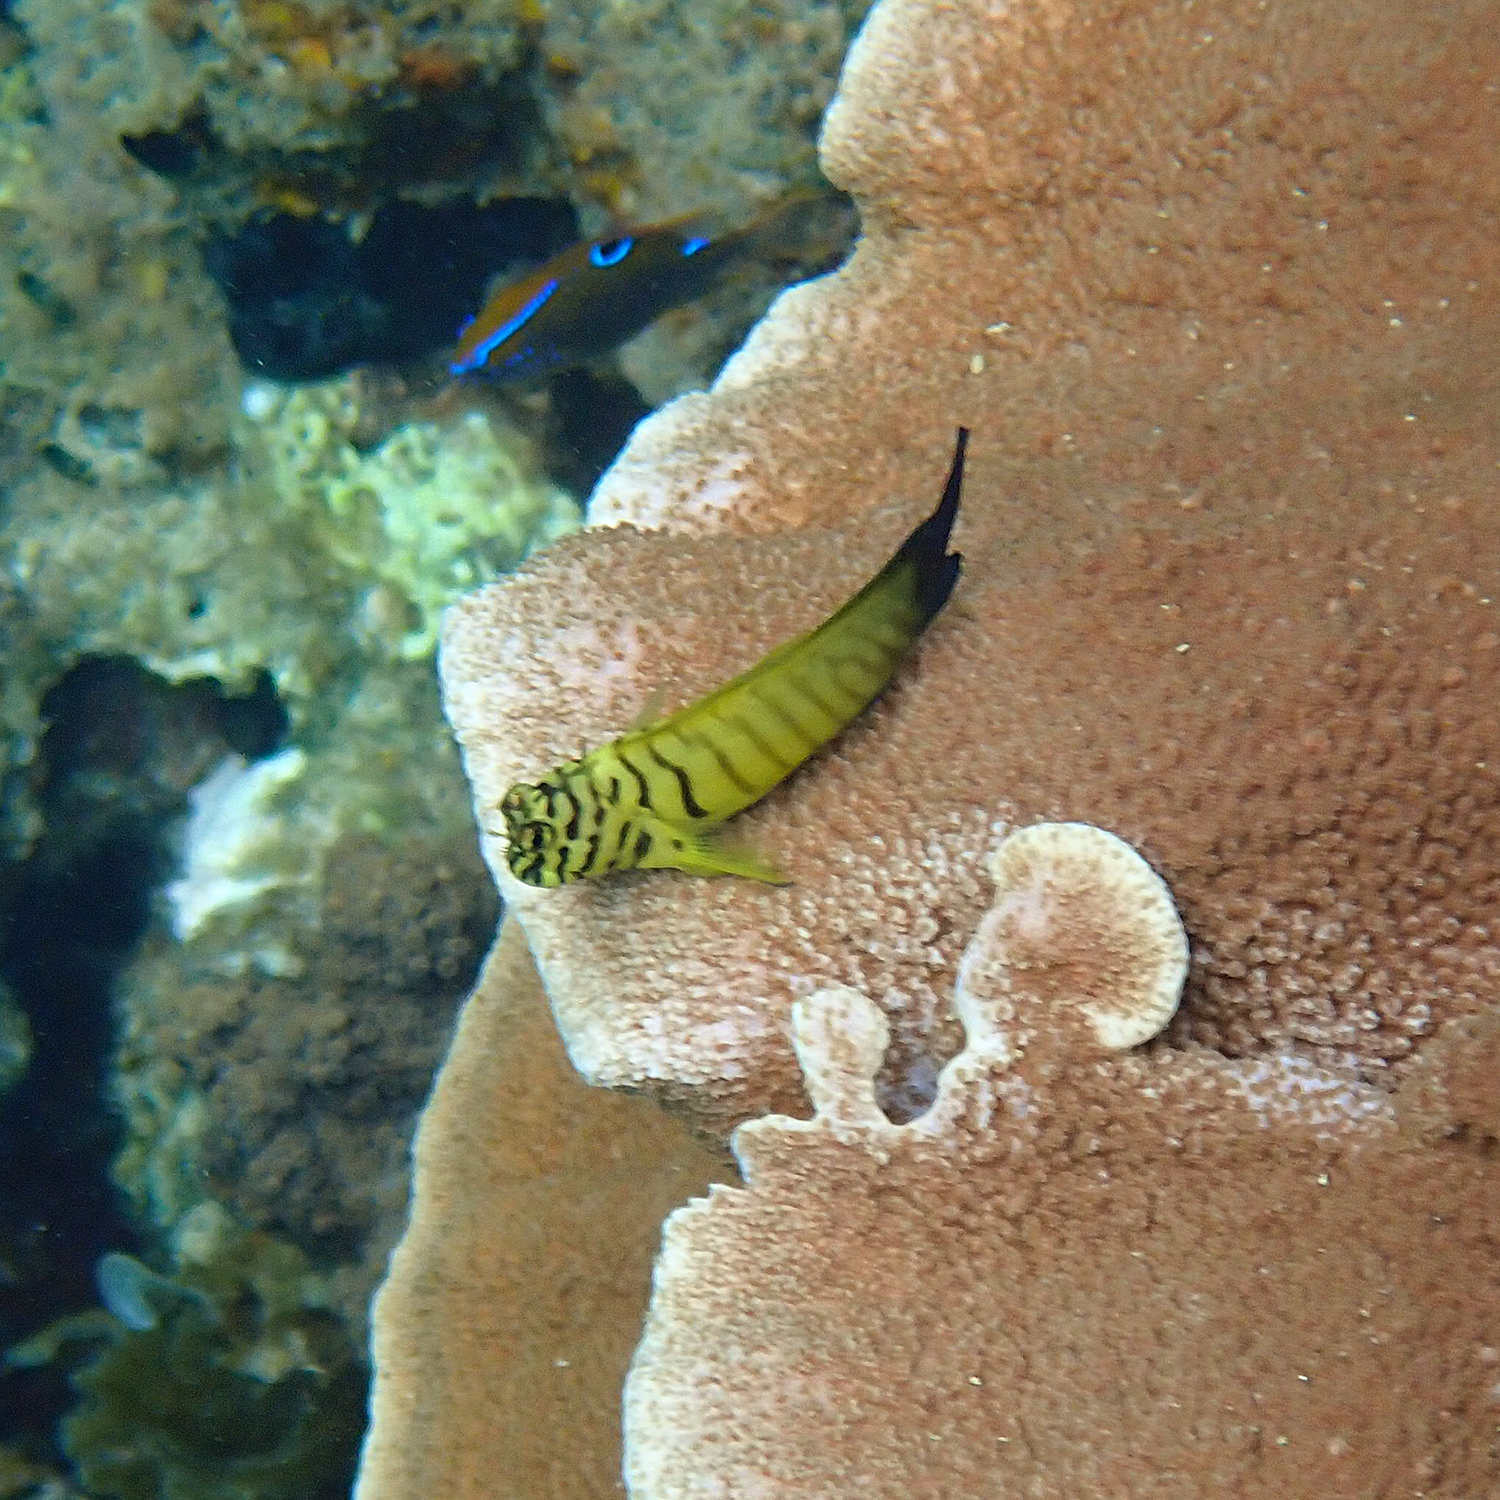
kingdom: Animalia
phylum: Chordata
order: Perciformes
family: Blenniidae
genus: Cirripectes
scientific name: Cirripectes castaneus
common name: Chestnut blenny
